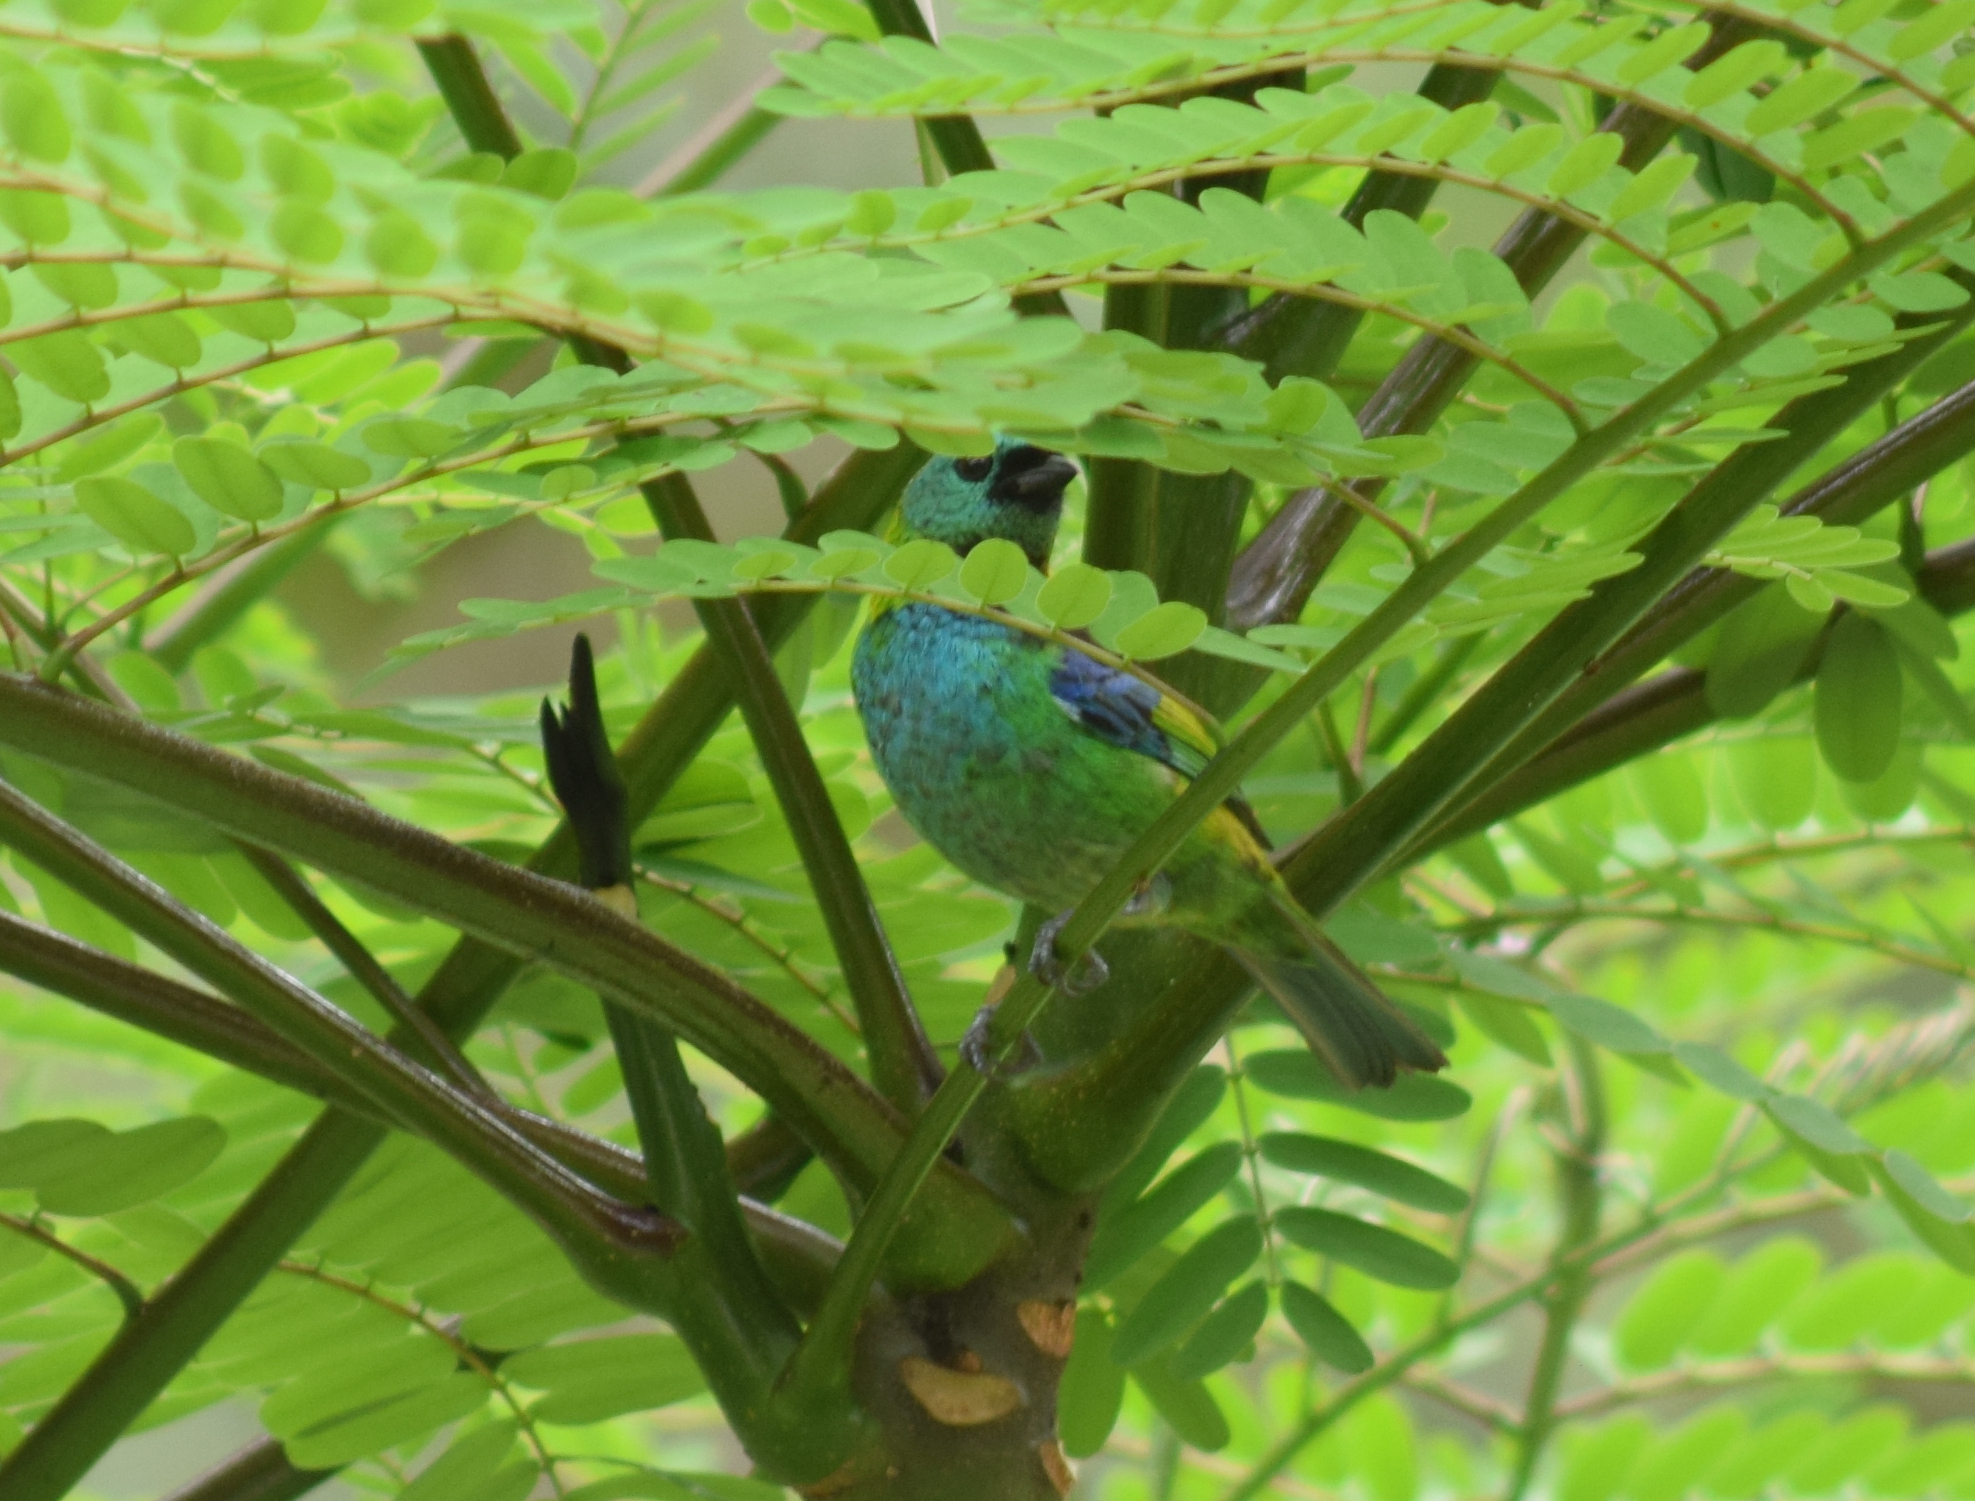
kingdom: Animalia
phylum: Chordata
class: Aves
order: Passeriformes
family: Thraupidae
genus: Tangara
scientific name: Tangara seledon
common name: Green-headed tanager
